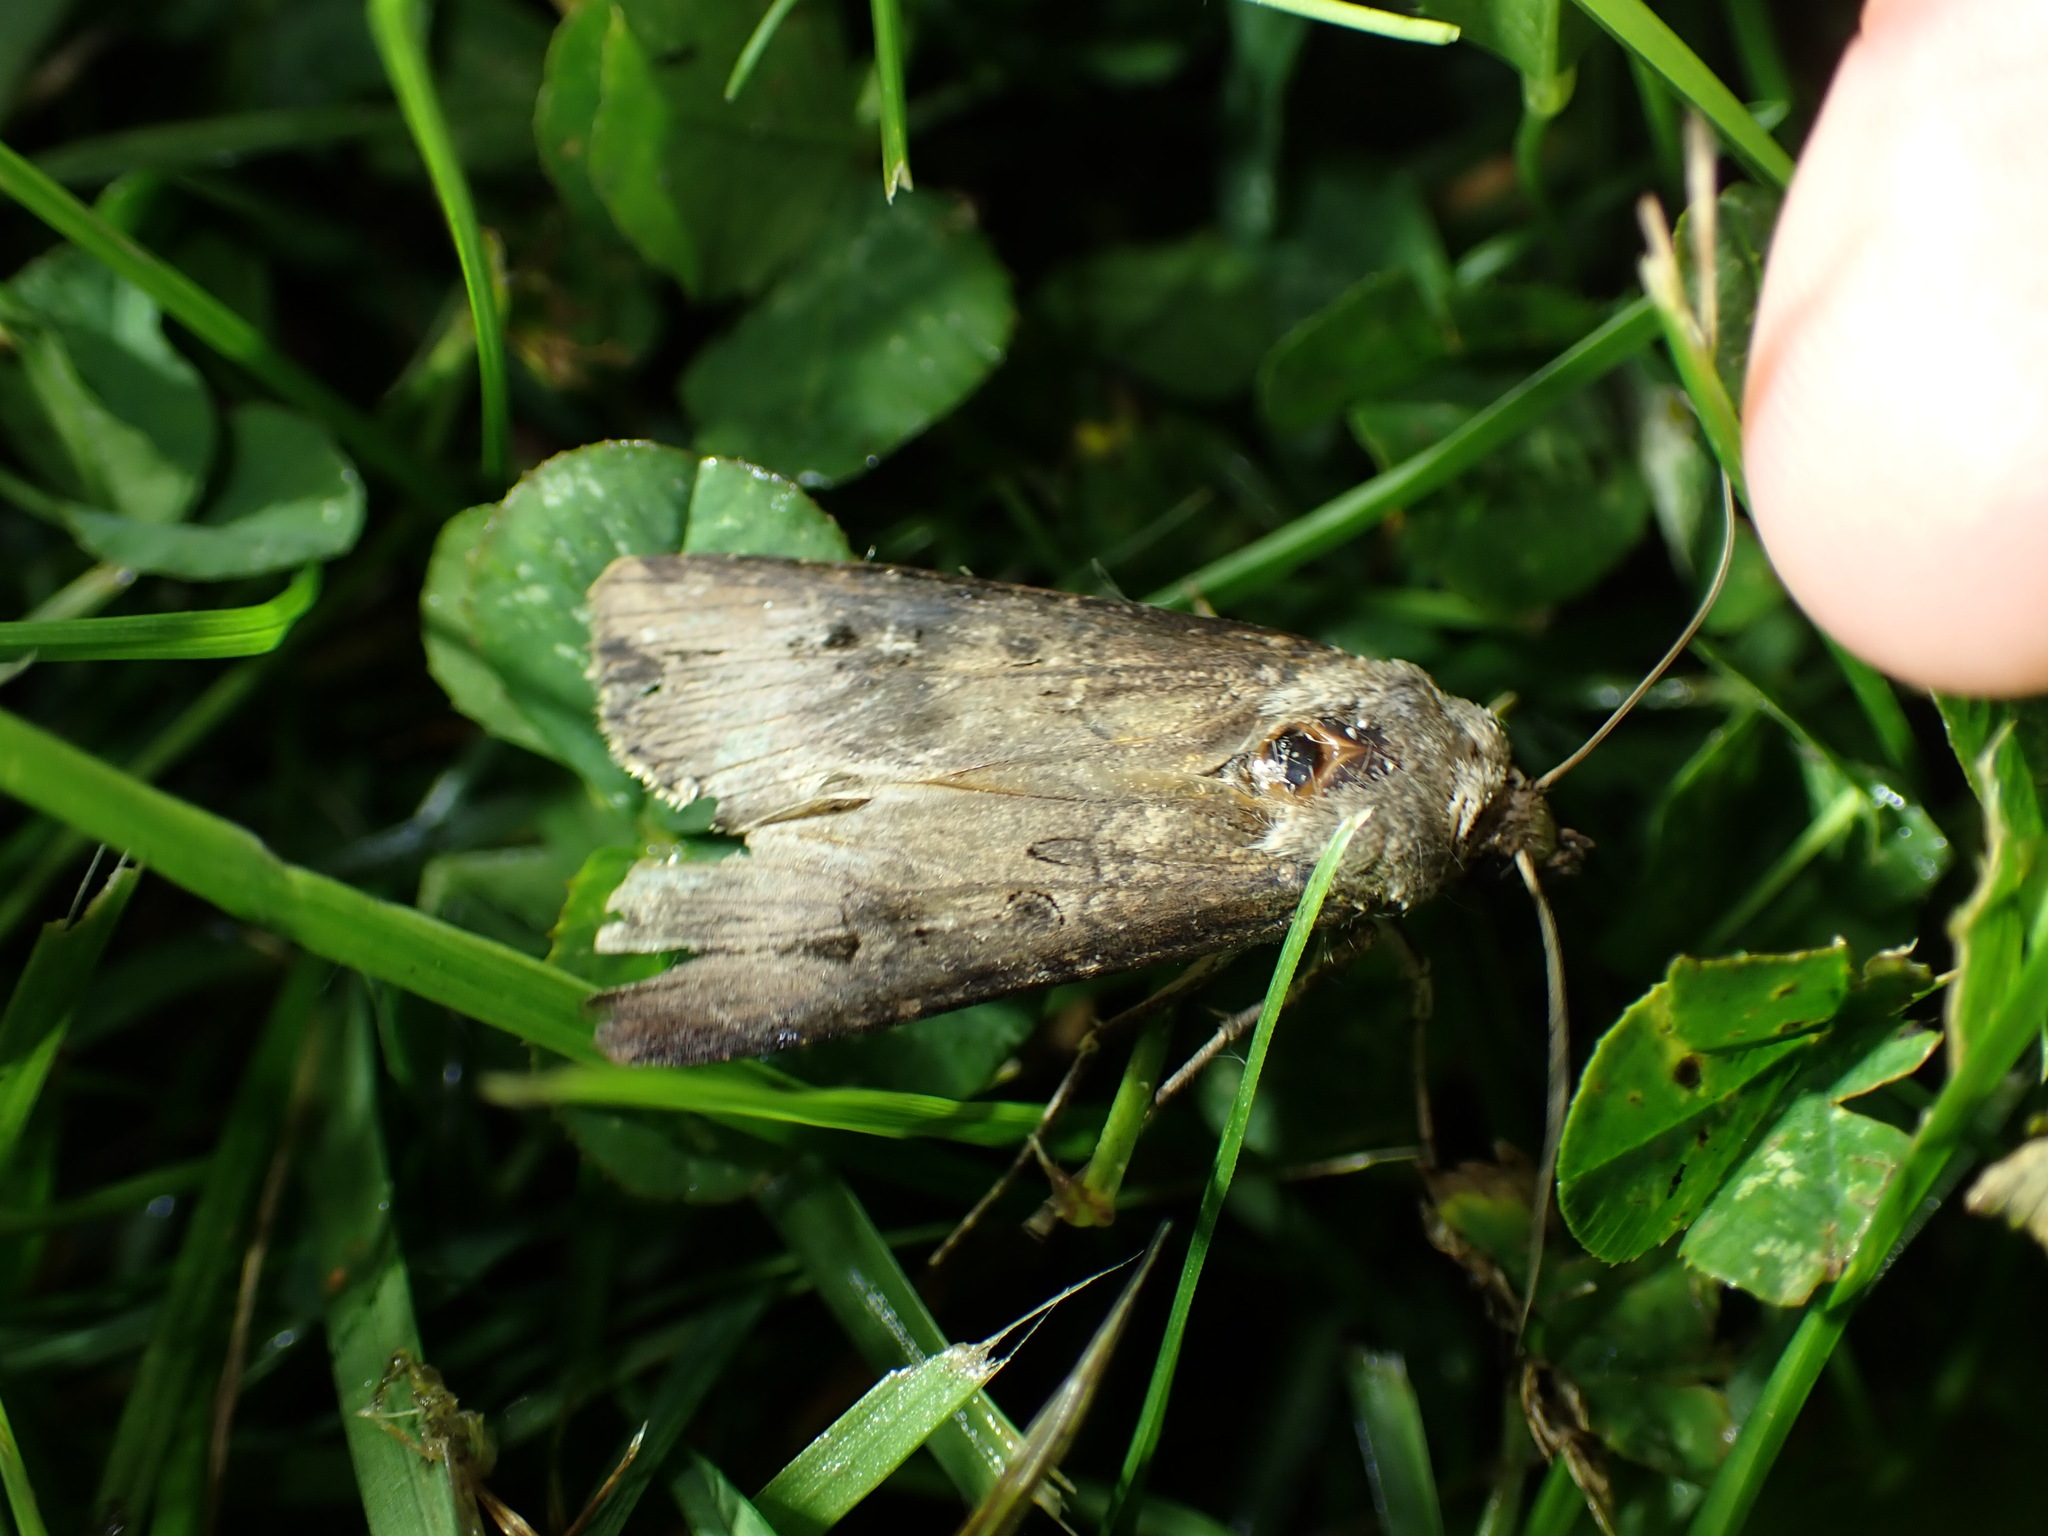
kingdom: Animalia
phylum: Arthropoda
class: Insecta
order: Lepidoptera
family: Noctuidae
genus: Agrotis
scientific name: Agrotis ipsilon
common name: Dark sword-grass
